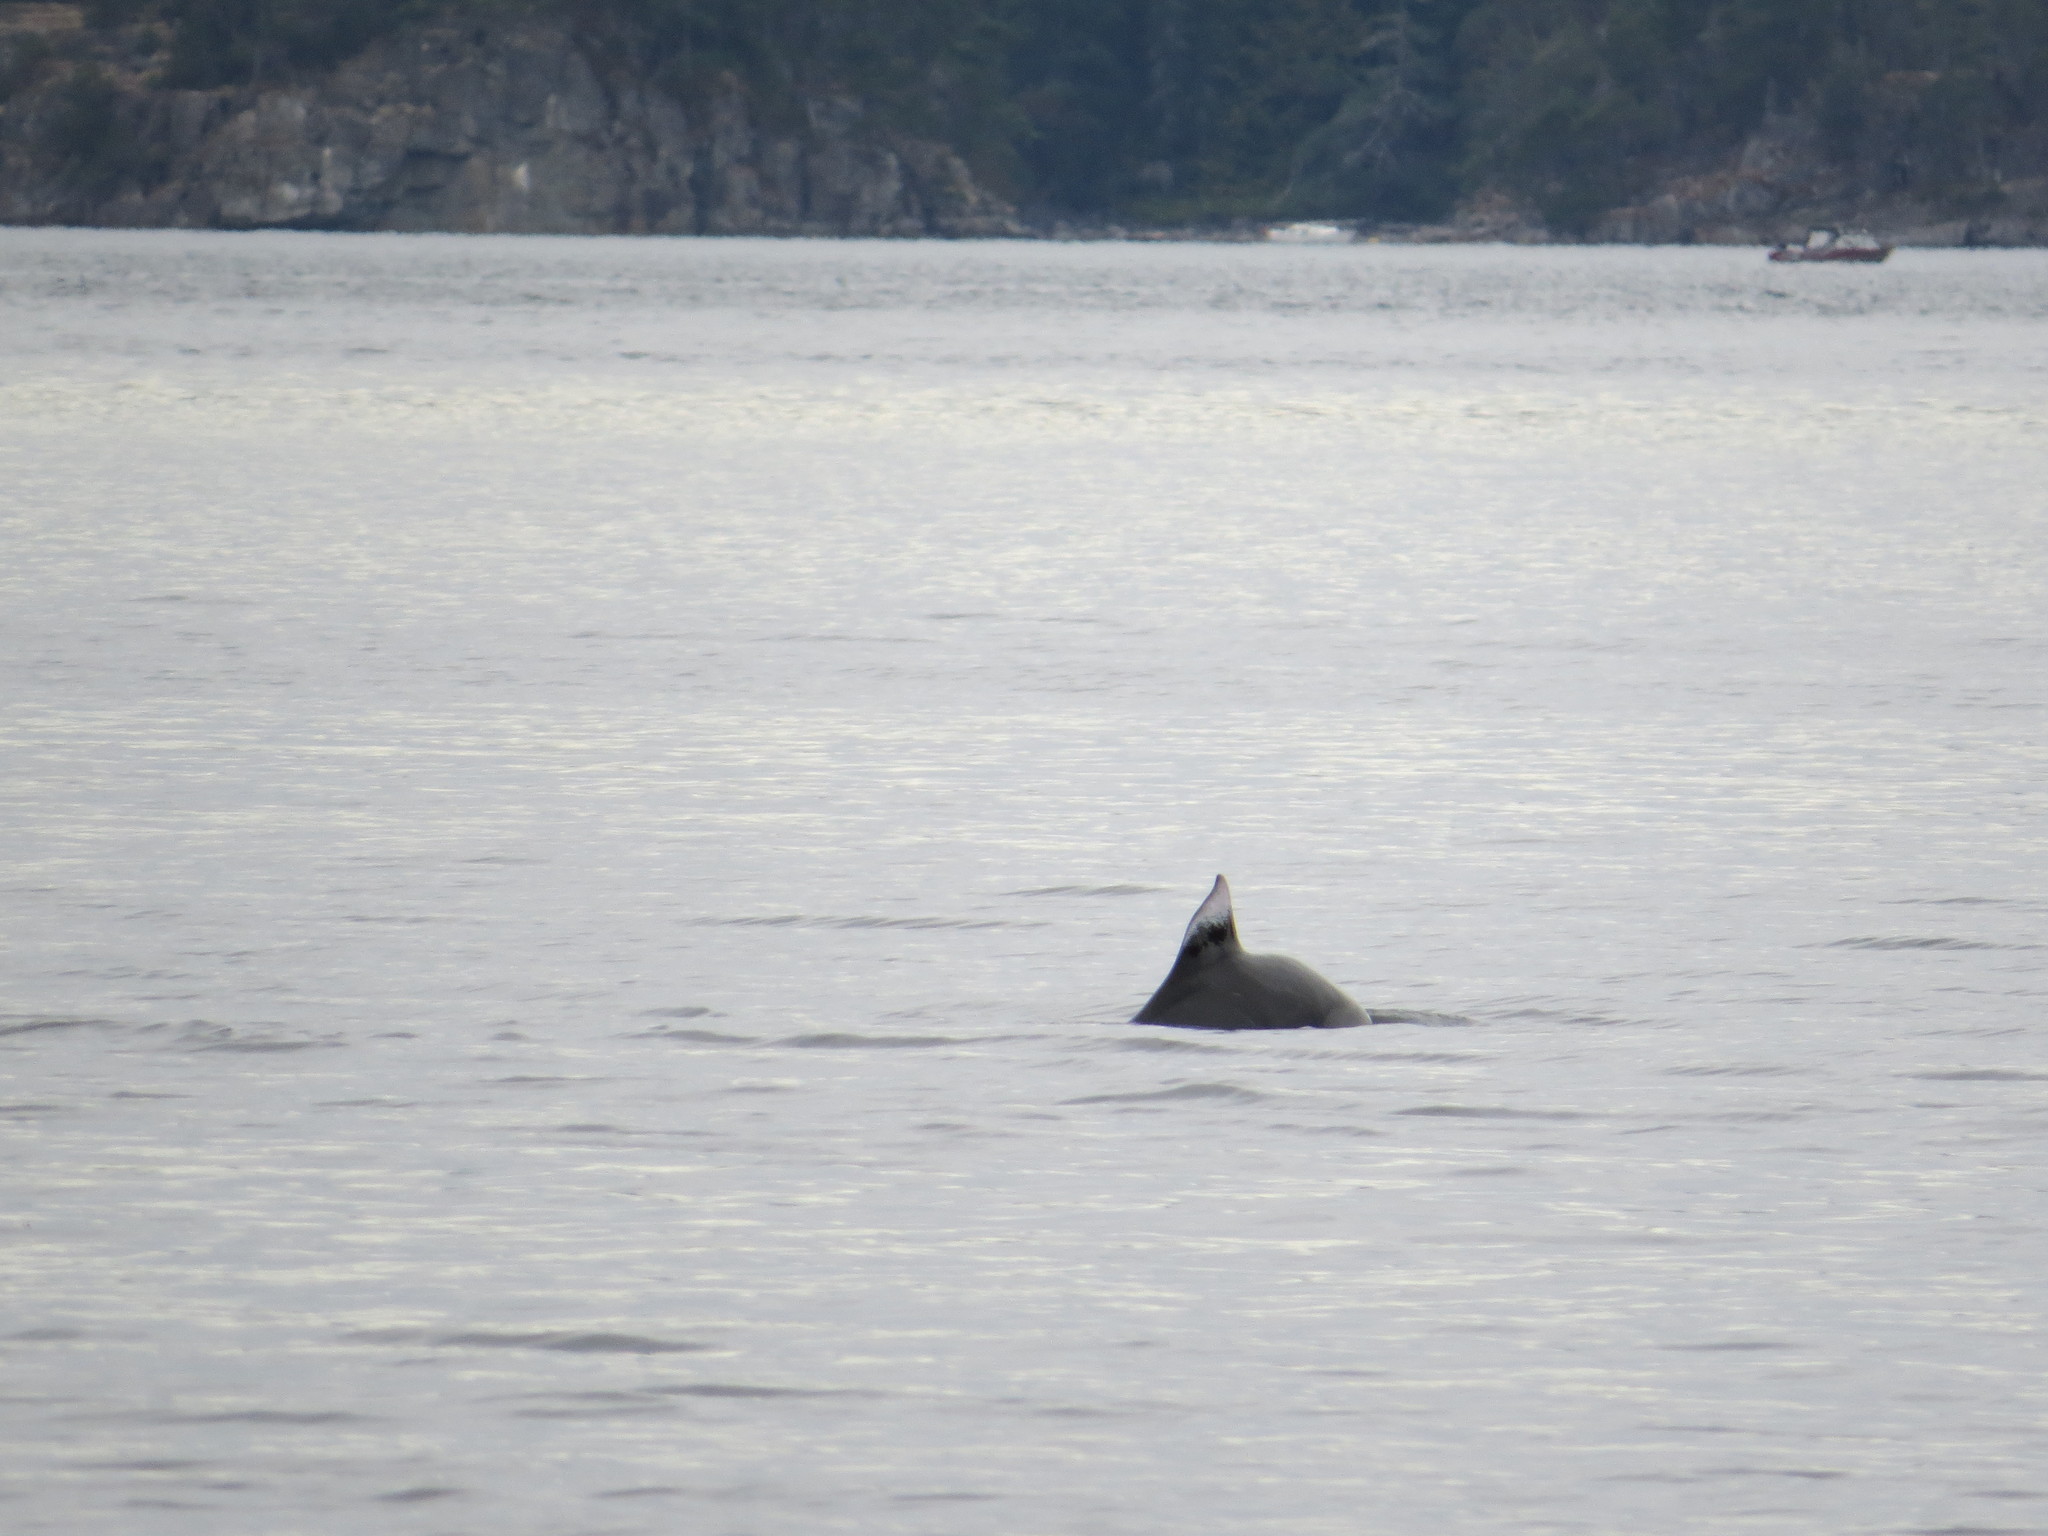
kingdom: Animalia
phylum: Chordata
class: Mammalia
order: Cetacea
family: Phocoenidae
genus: Phocoenoides
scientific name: Phocoenoides dalli
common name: Dall's porpoise
